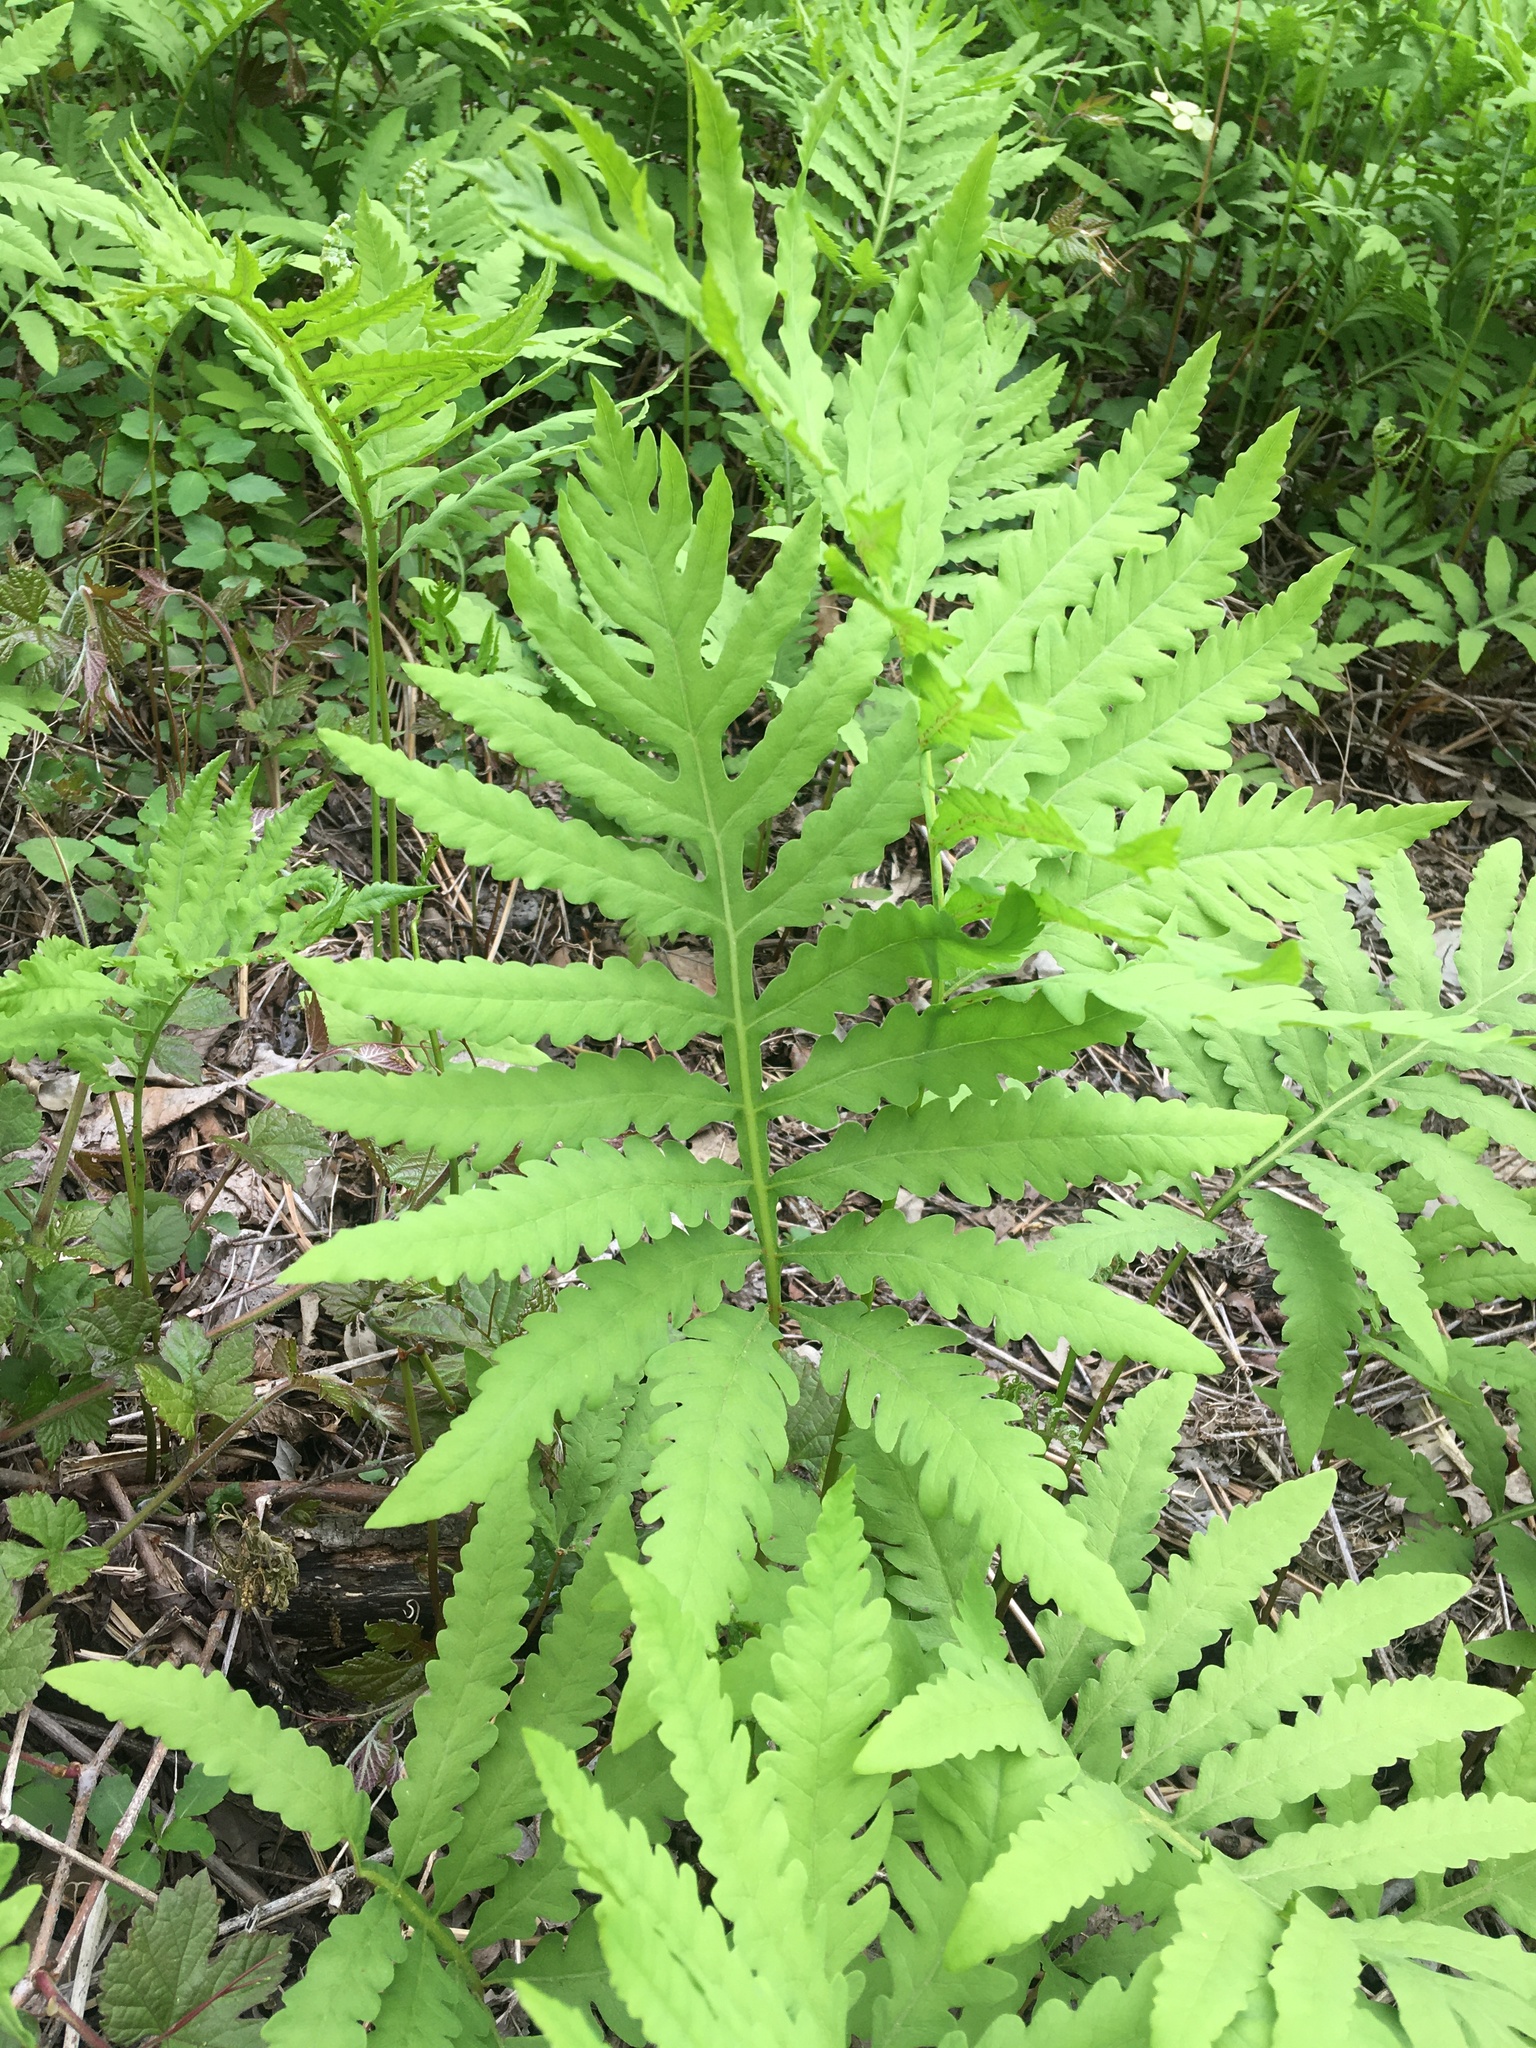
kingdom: Plantae
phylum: Tracheophyta
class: Polypodiopsida
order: Polypodiales
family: Onocleaceae
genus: Onoclea
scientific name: Onoclea sensibilis
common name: Sensitive fern
